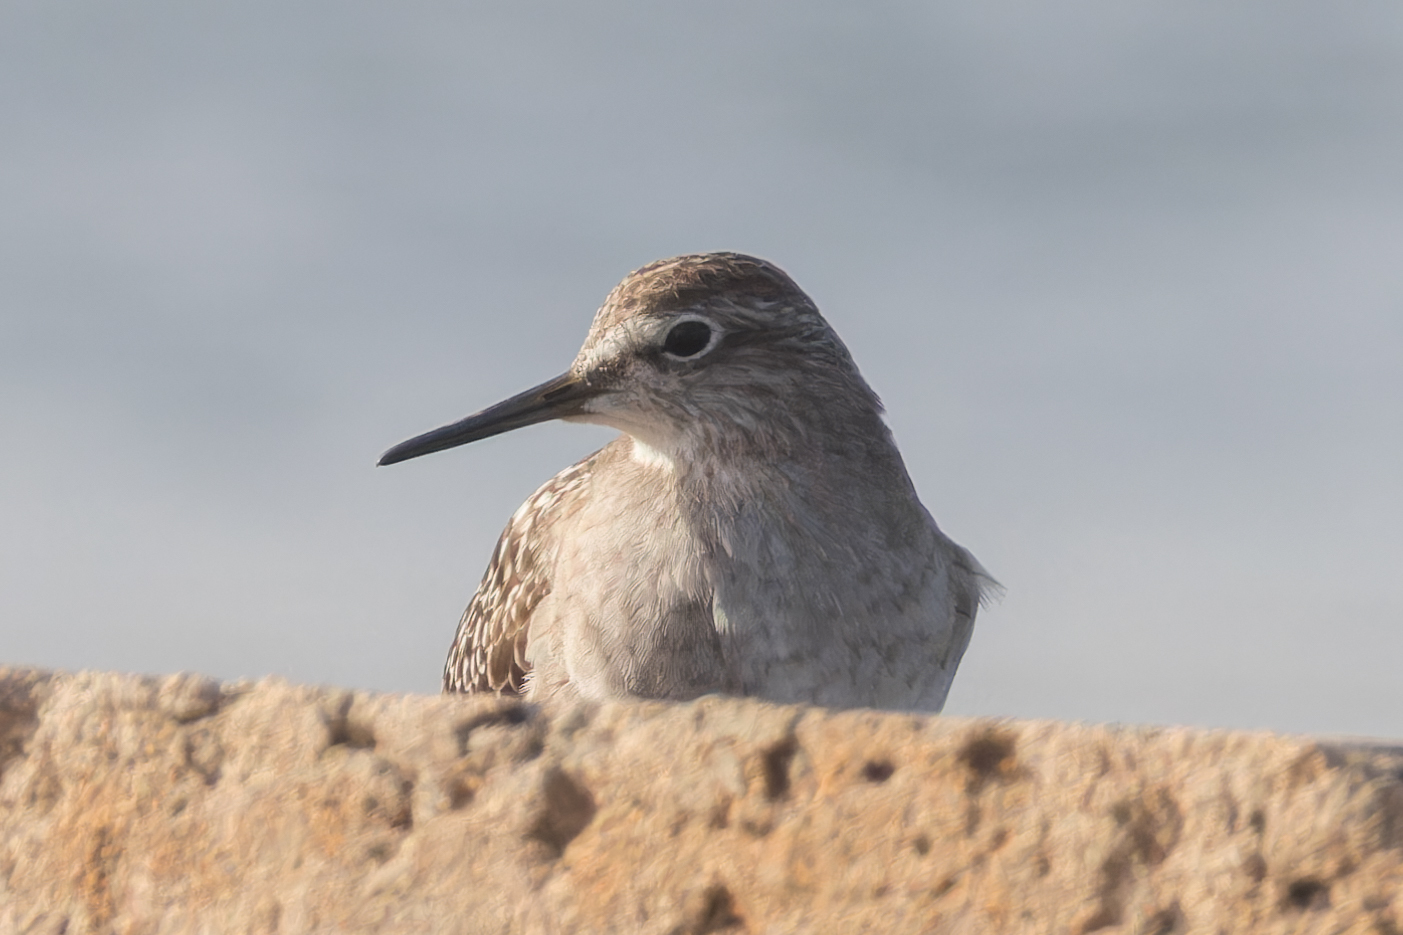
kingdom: Animalia
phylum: Chordata
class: Aves
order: Charadriiformes
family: Scolopacidae
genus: Tringa
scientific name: Tringa glareola
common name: Wood sandpiper
